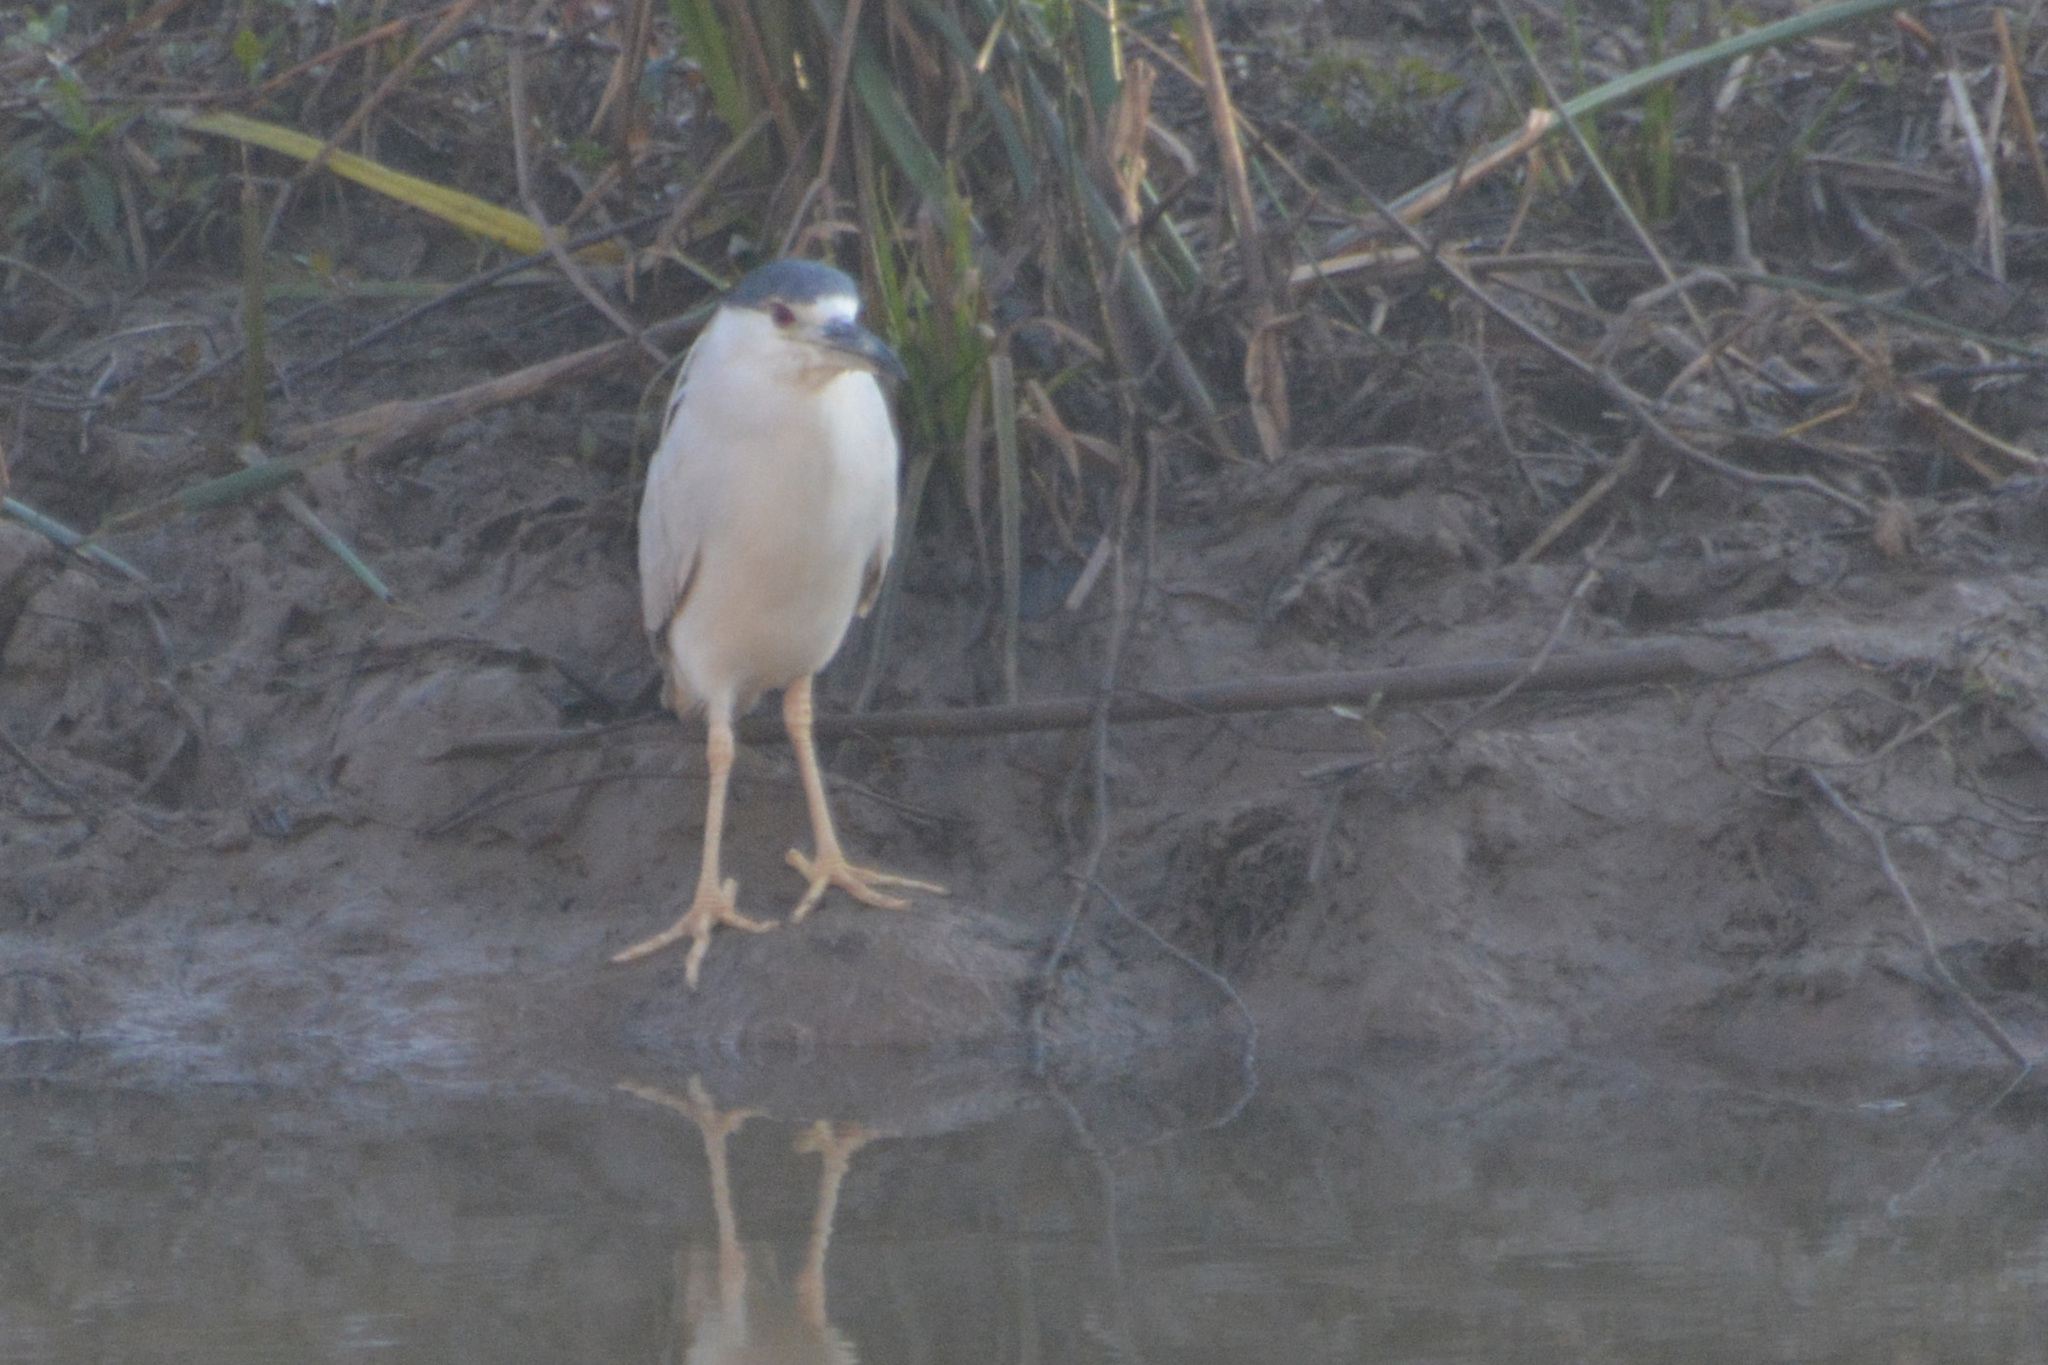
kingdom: Animalia
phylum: Chordata
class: Aves
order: Pelecaniformes
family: Ardeidae
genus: Nycticorax
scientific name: Nycticorax nycticorax
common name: Black-crowned night heron
